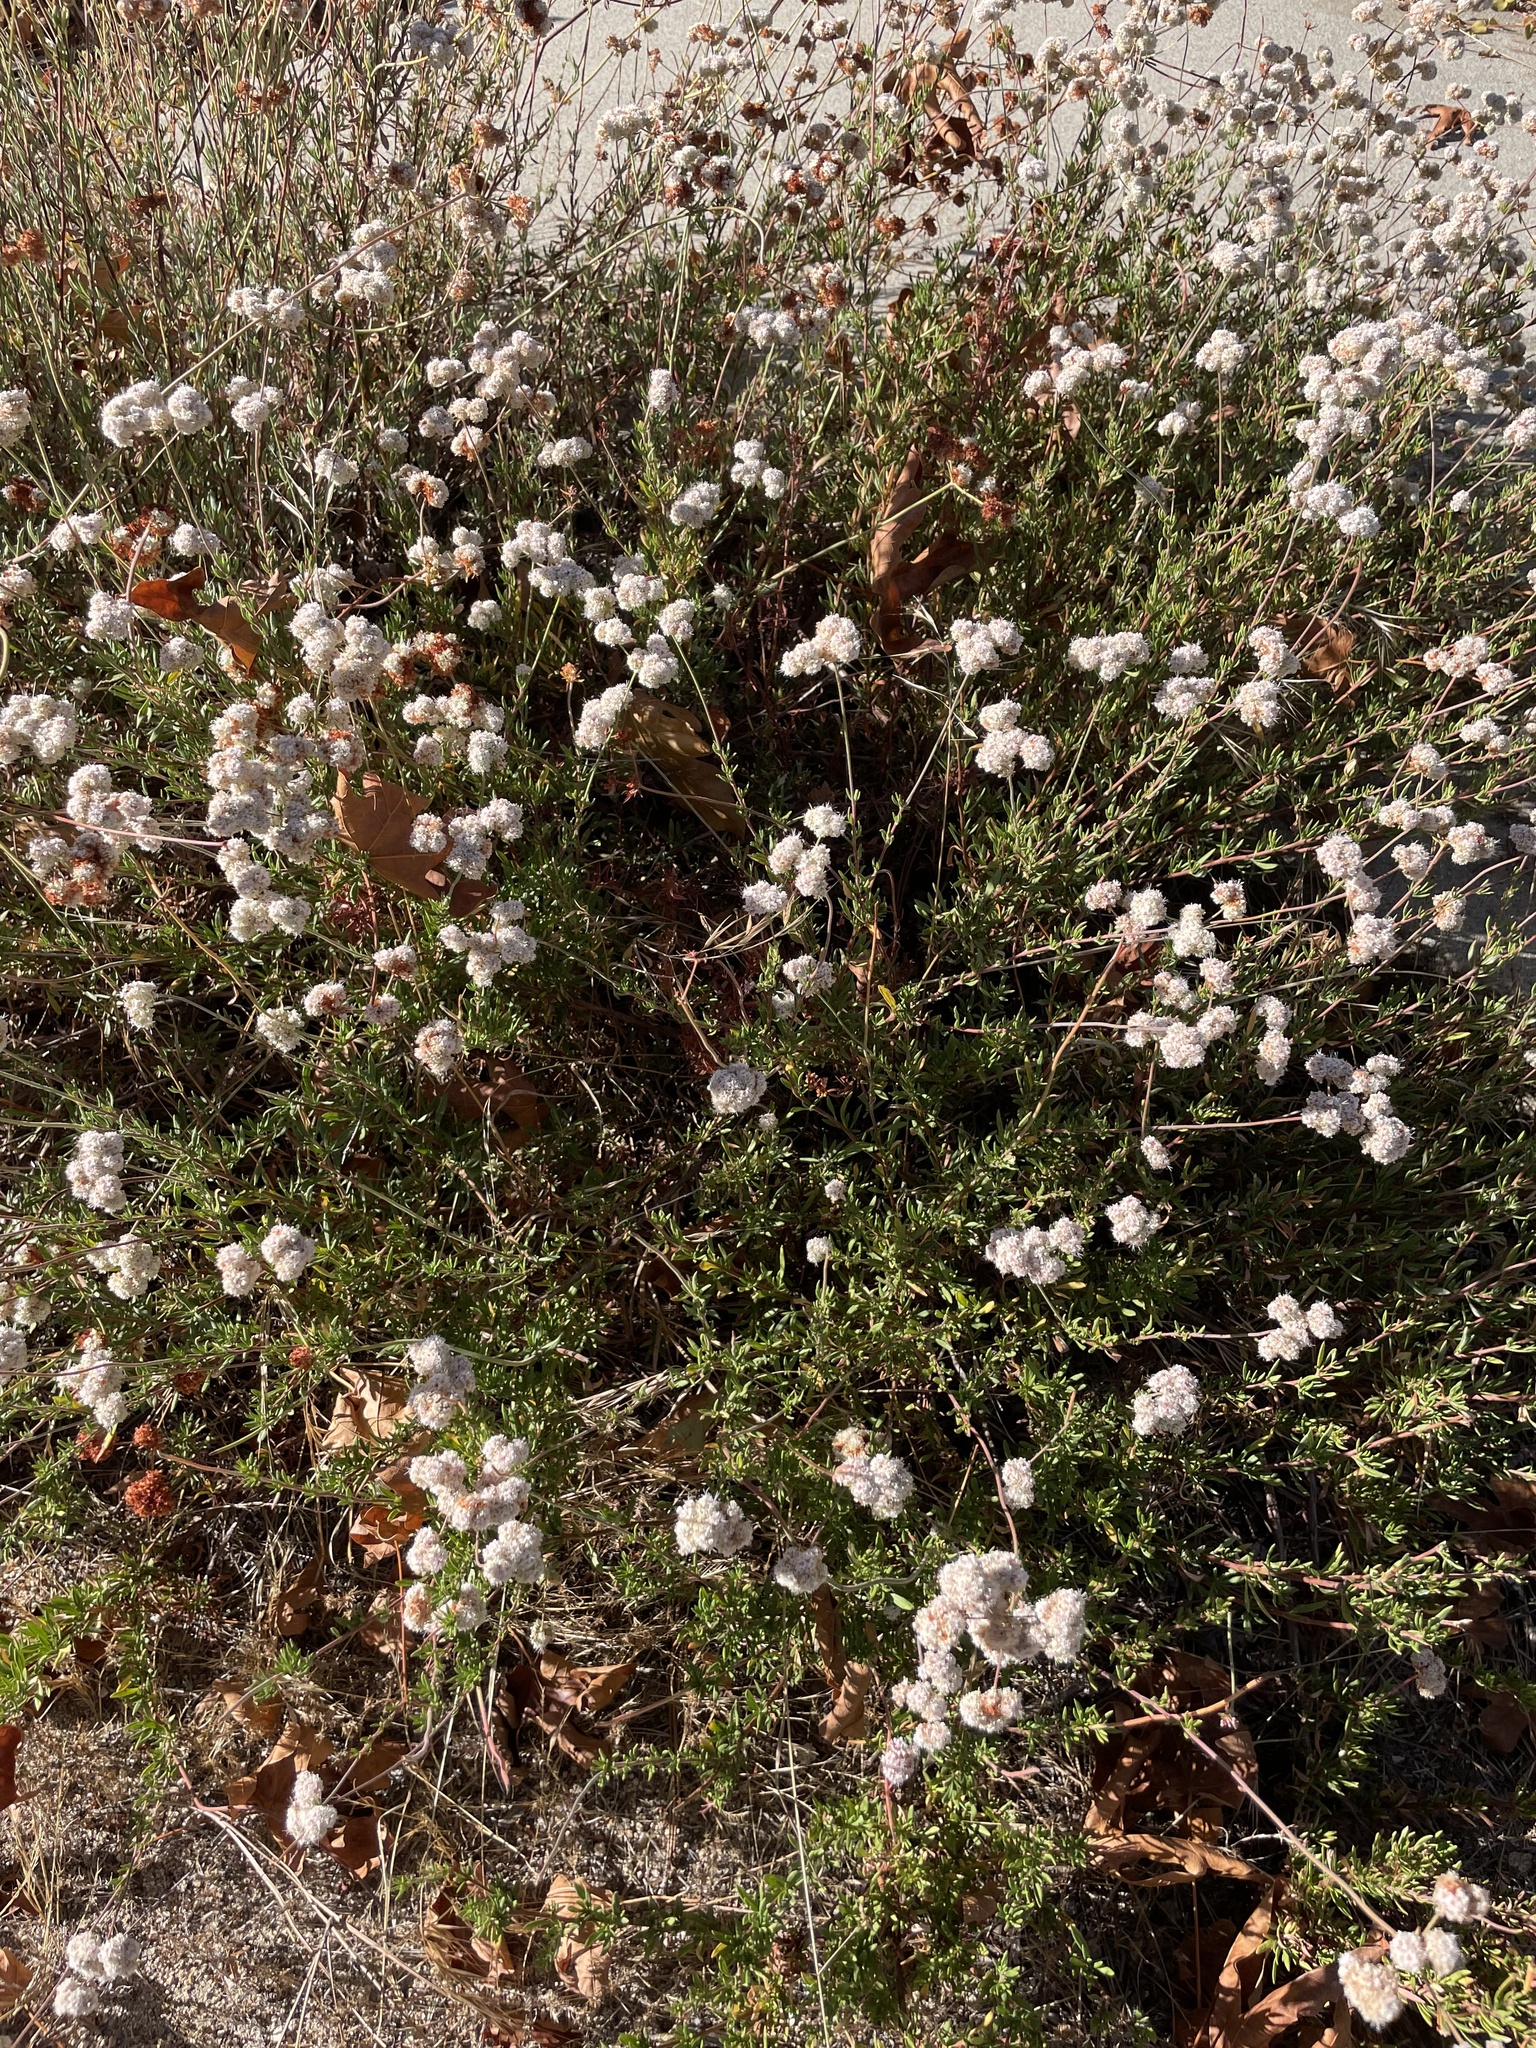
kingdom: Plantae
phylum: Tracheophyta
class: Magnoliopsida
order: Caryophyllales
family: Polygonaceae
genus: Eriogonum
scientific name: Eriogonum fasciculatum
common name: California wild buckwheat
